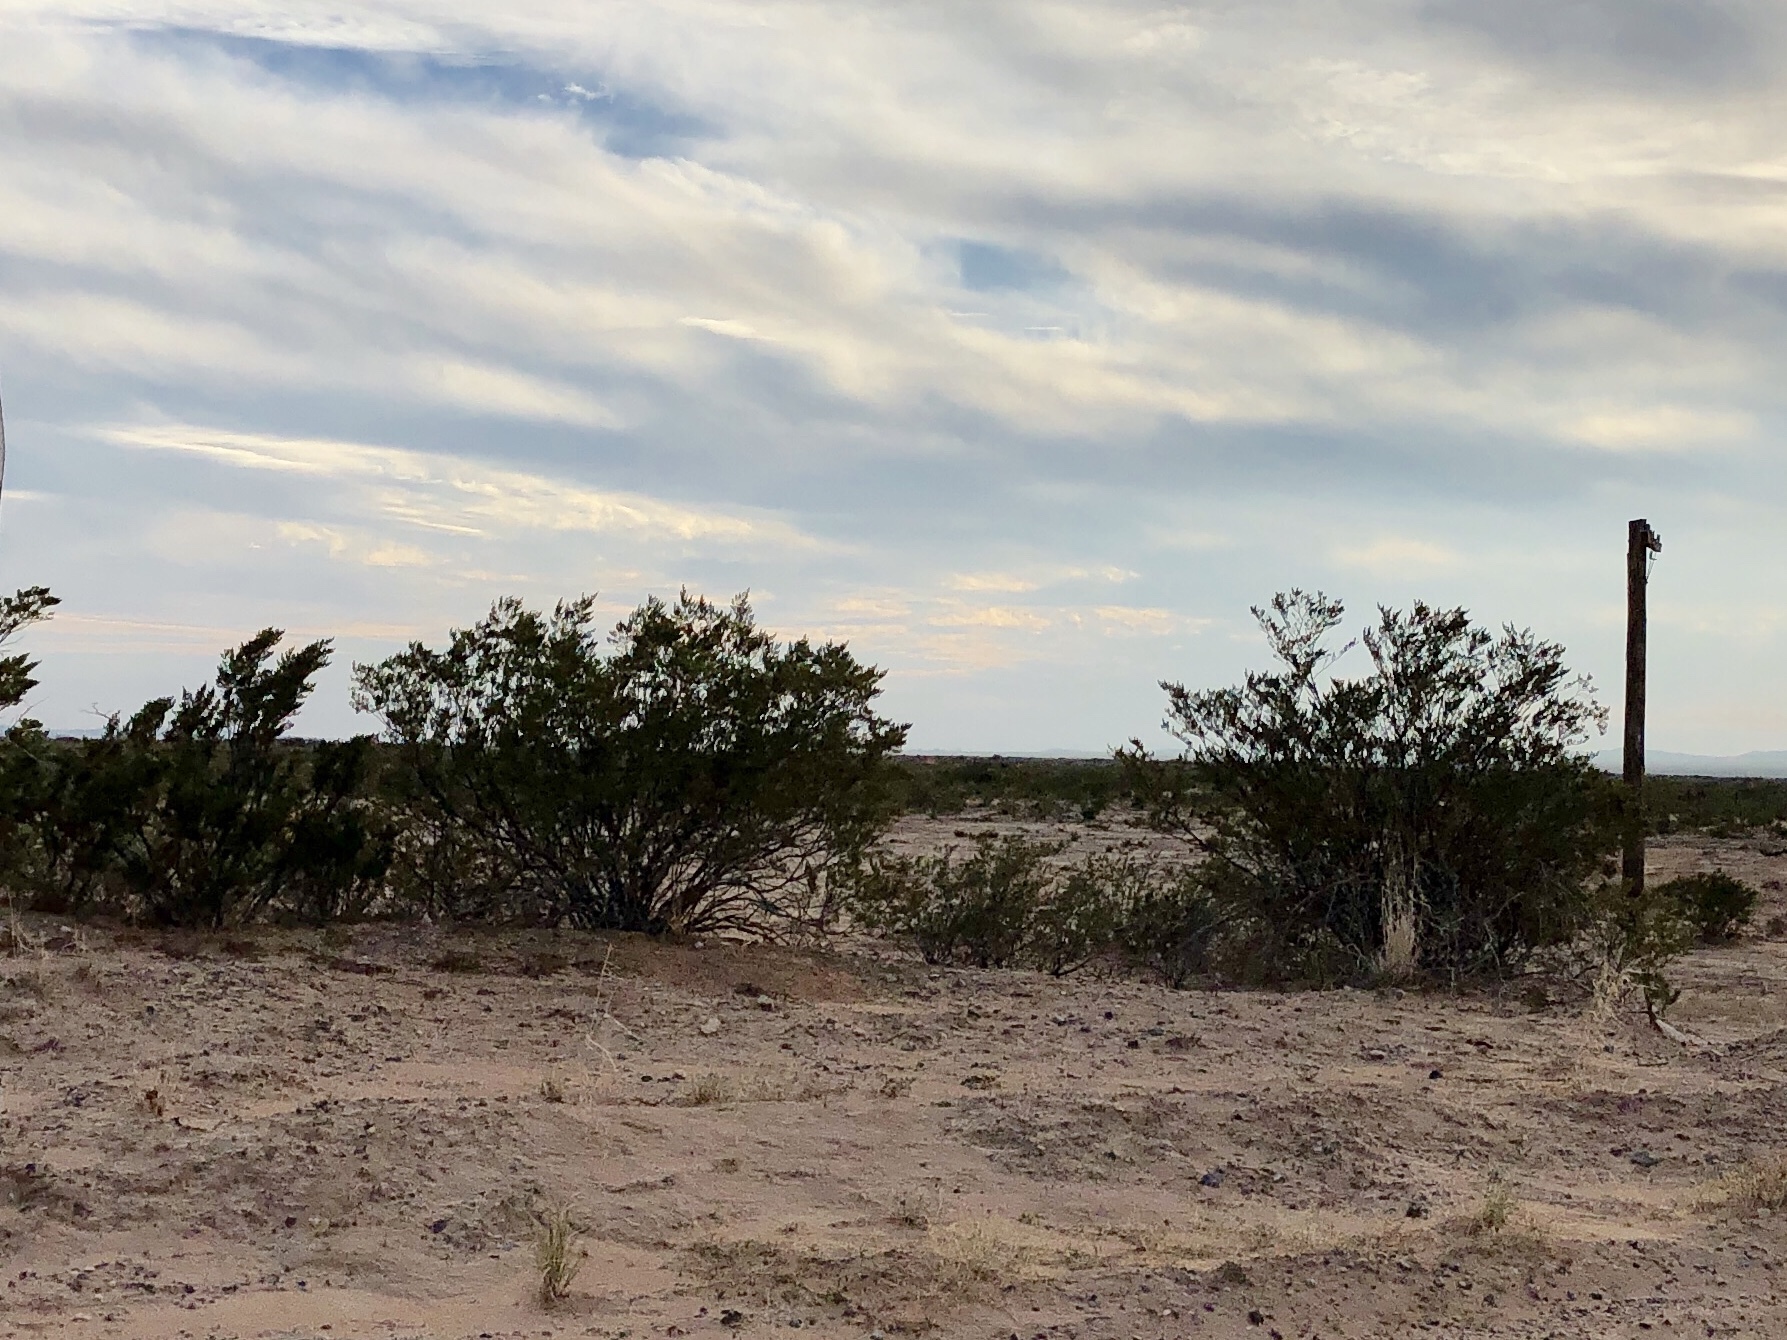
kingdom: Plantae
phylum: Tracheophyta
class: Magnoliopsida
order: Zygophyllales
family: Zygophyllaceae
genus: Larrea
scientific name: Larrea tridentata
